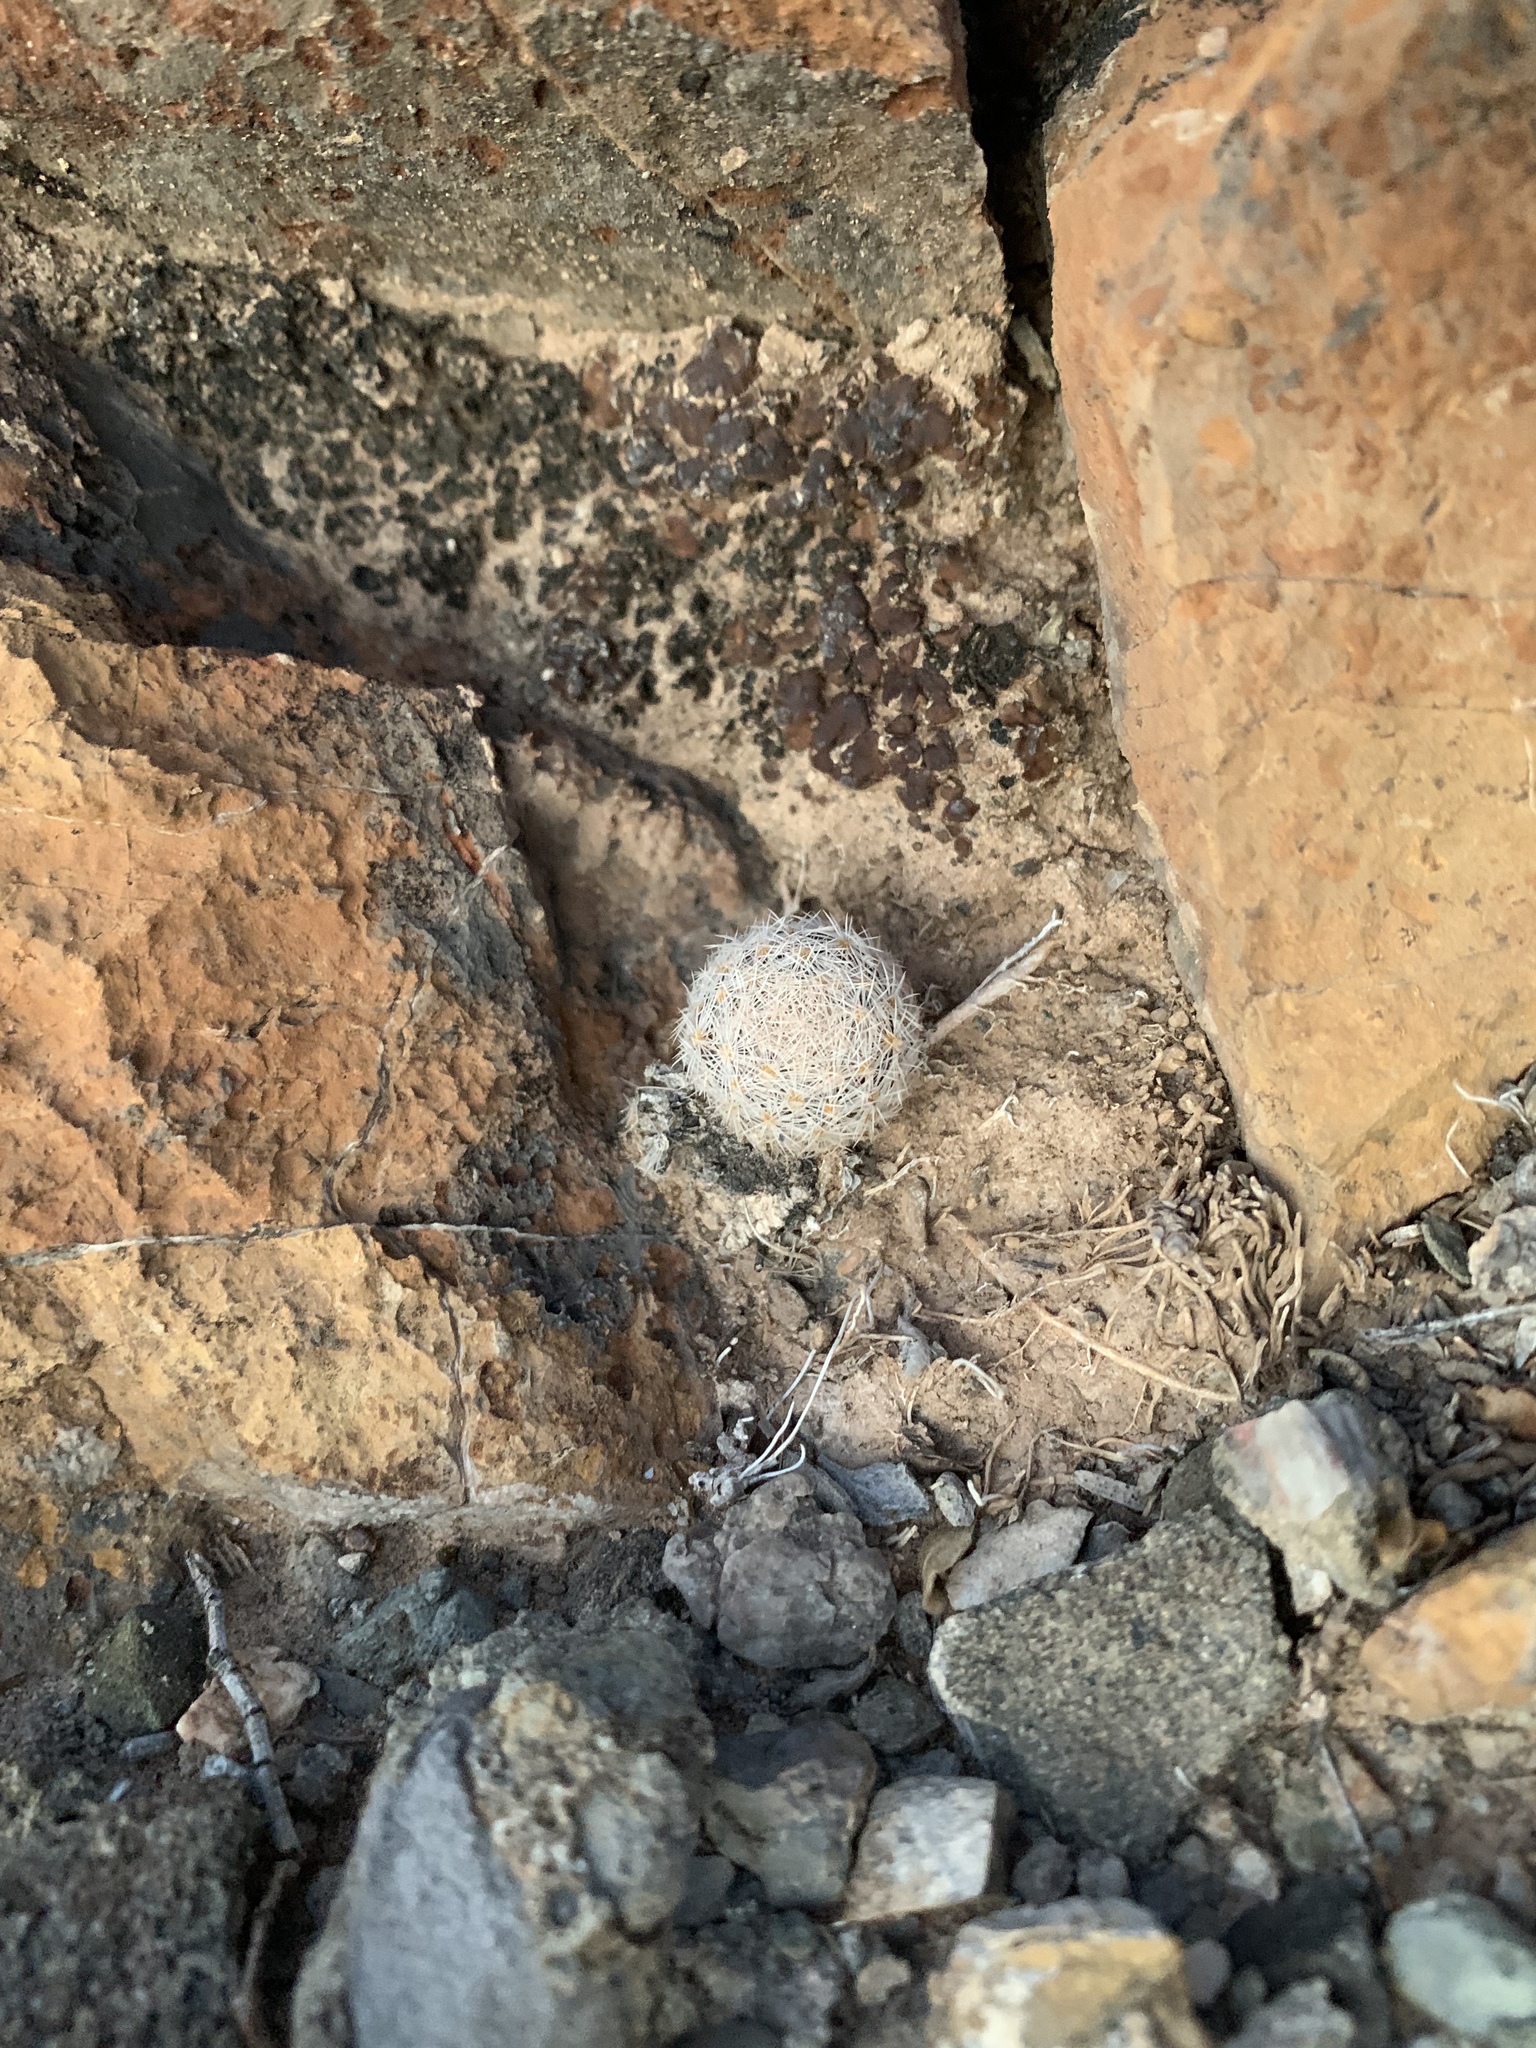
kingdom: Plantae
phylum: Tracheophyta
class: Magnoliopsida
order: Caryophyllales
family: Cactaceae
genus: Mammillaria
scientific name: Mammillaria lasiacantha
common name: Lace-spine nipple cactus
